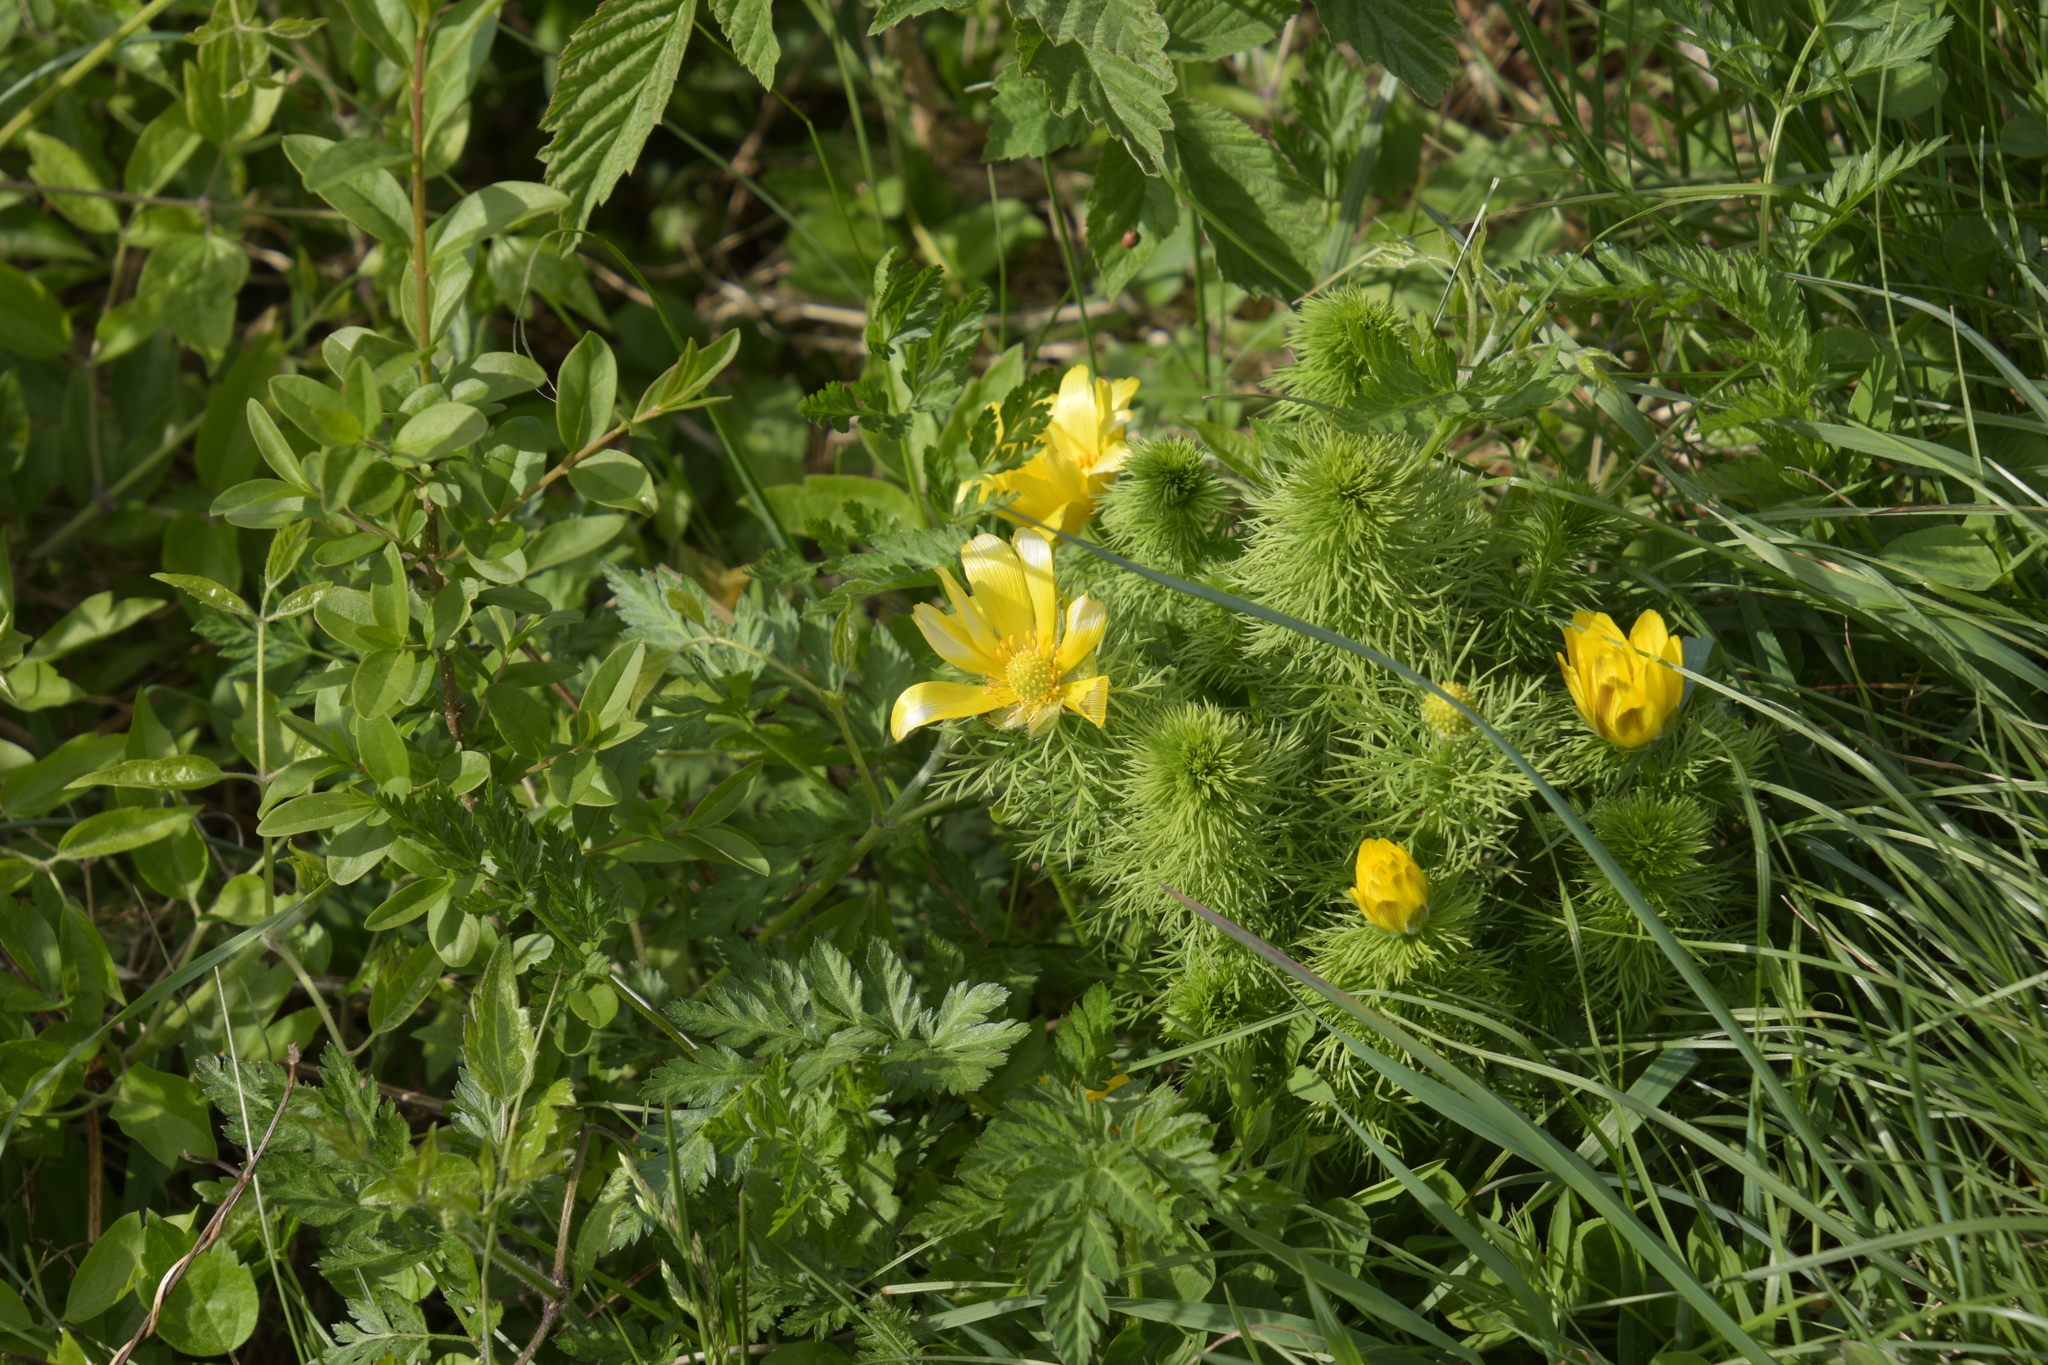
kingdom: Plantae
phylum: Tracheophyta
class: Magnoliopsida
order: Ranunculales
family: Ranunculaceae
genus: Adonis
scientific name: Adonis vernalis
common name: Yellow pheasants-eye
